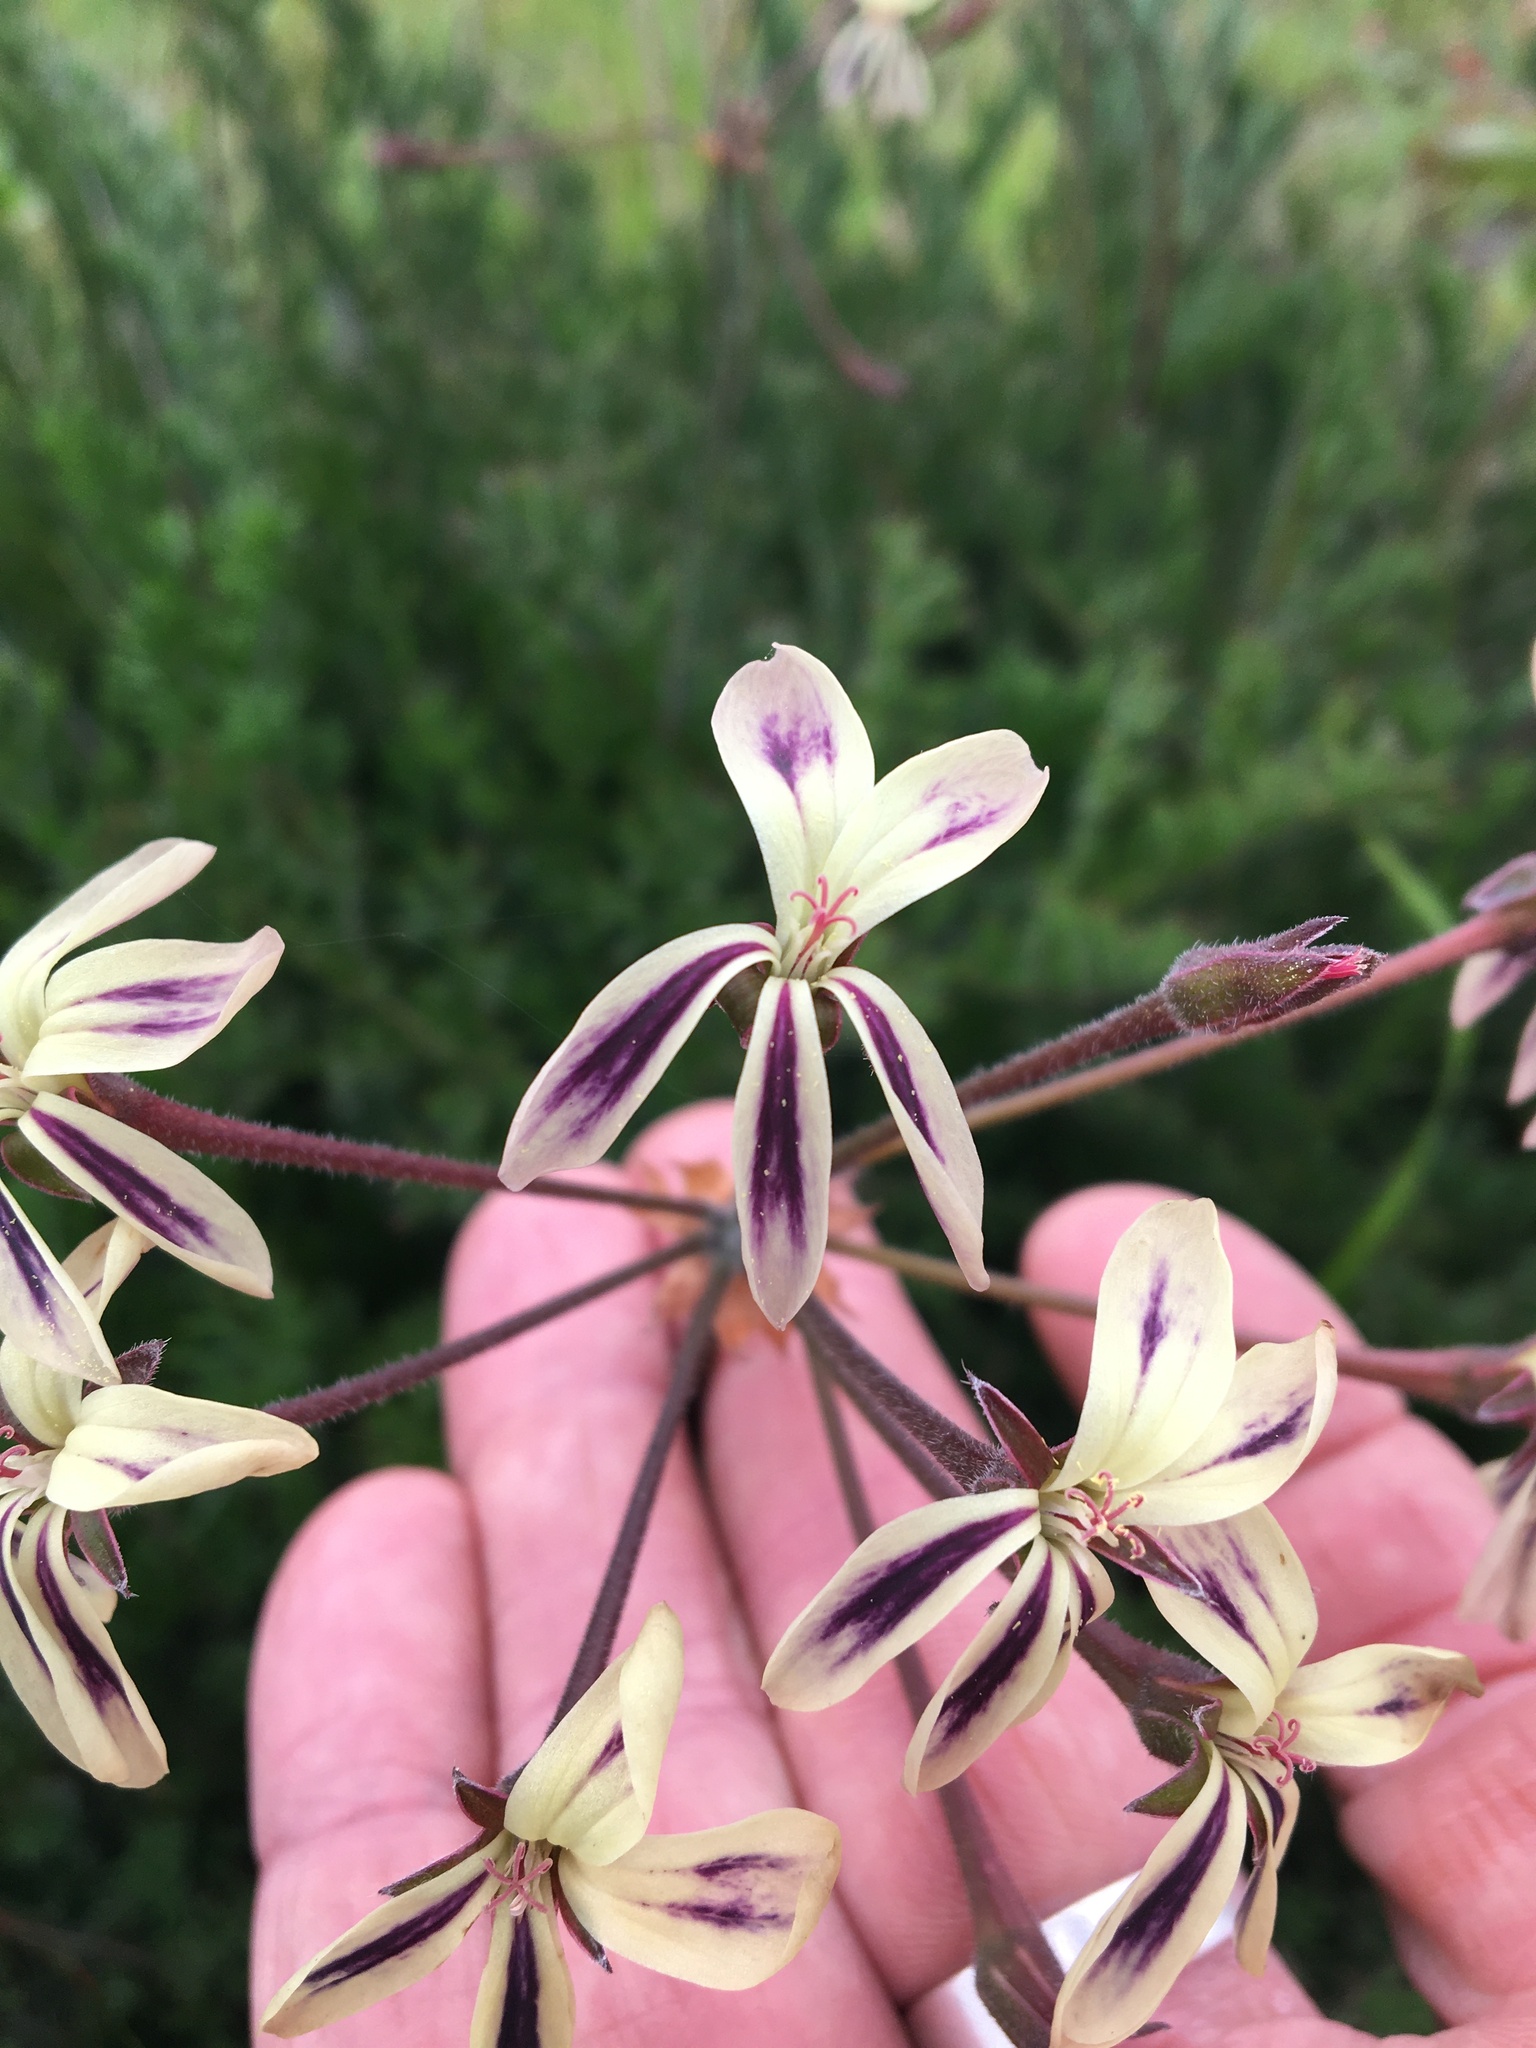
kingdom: Plantae
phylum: Tracheophyta
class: Magnoliopsida
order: Geraniales
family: Geraniaceae
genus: Pelargonium
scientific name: Pelargonium triste
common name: Night-scent pelargonium
